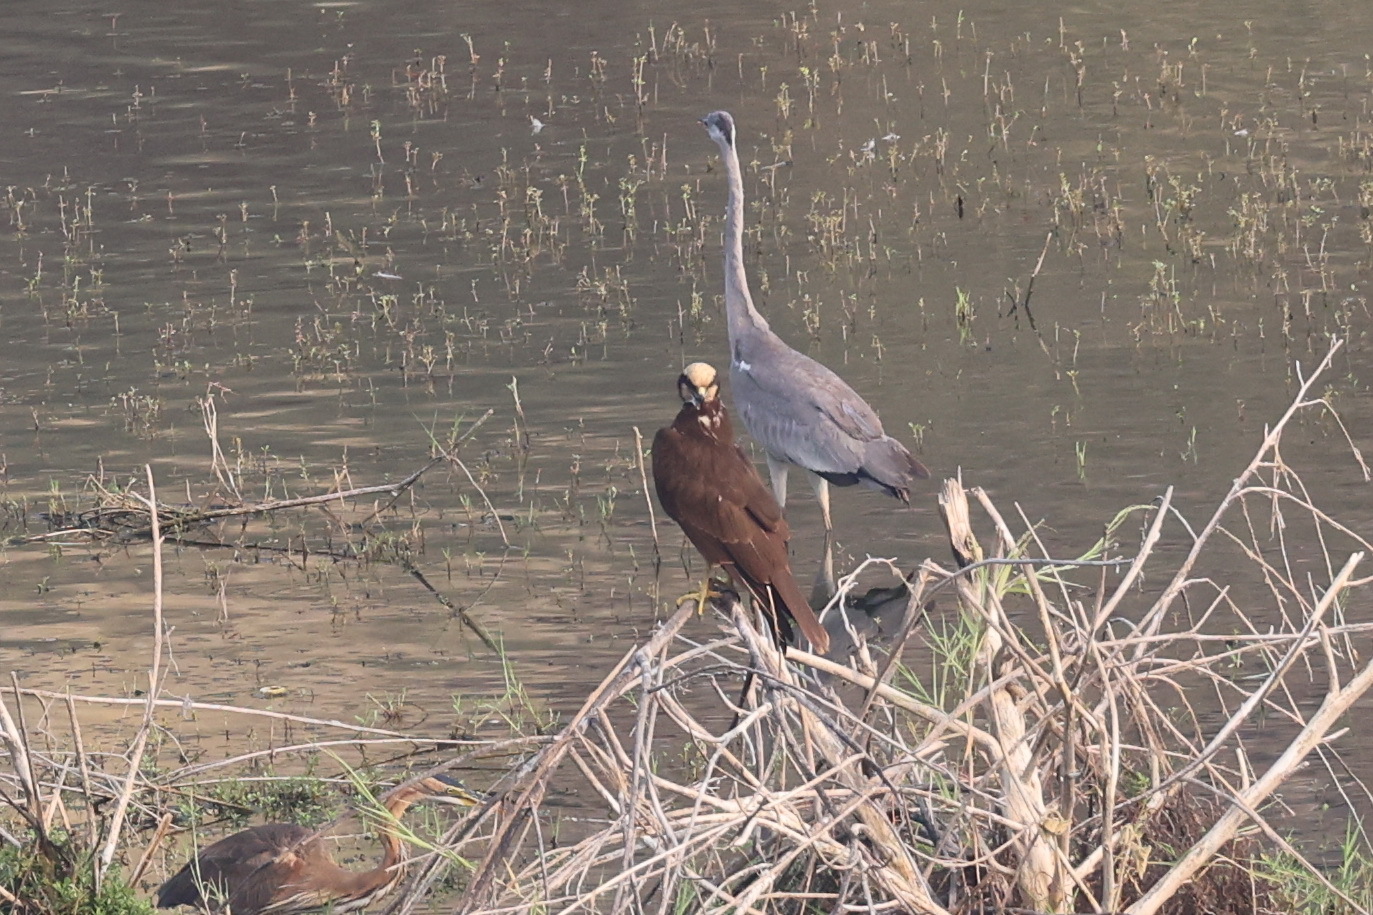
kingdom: Animalia
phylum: Chordata
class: Aves
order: Accipitriformes
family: Accipitridae
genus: Circus
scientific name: Circus aeruginosus
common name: Western marsh harrier
